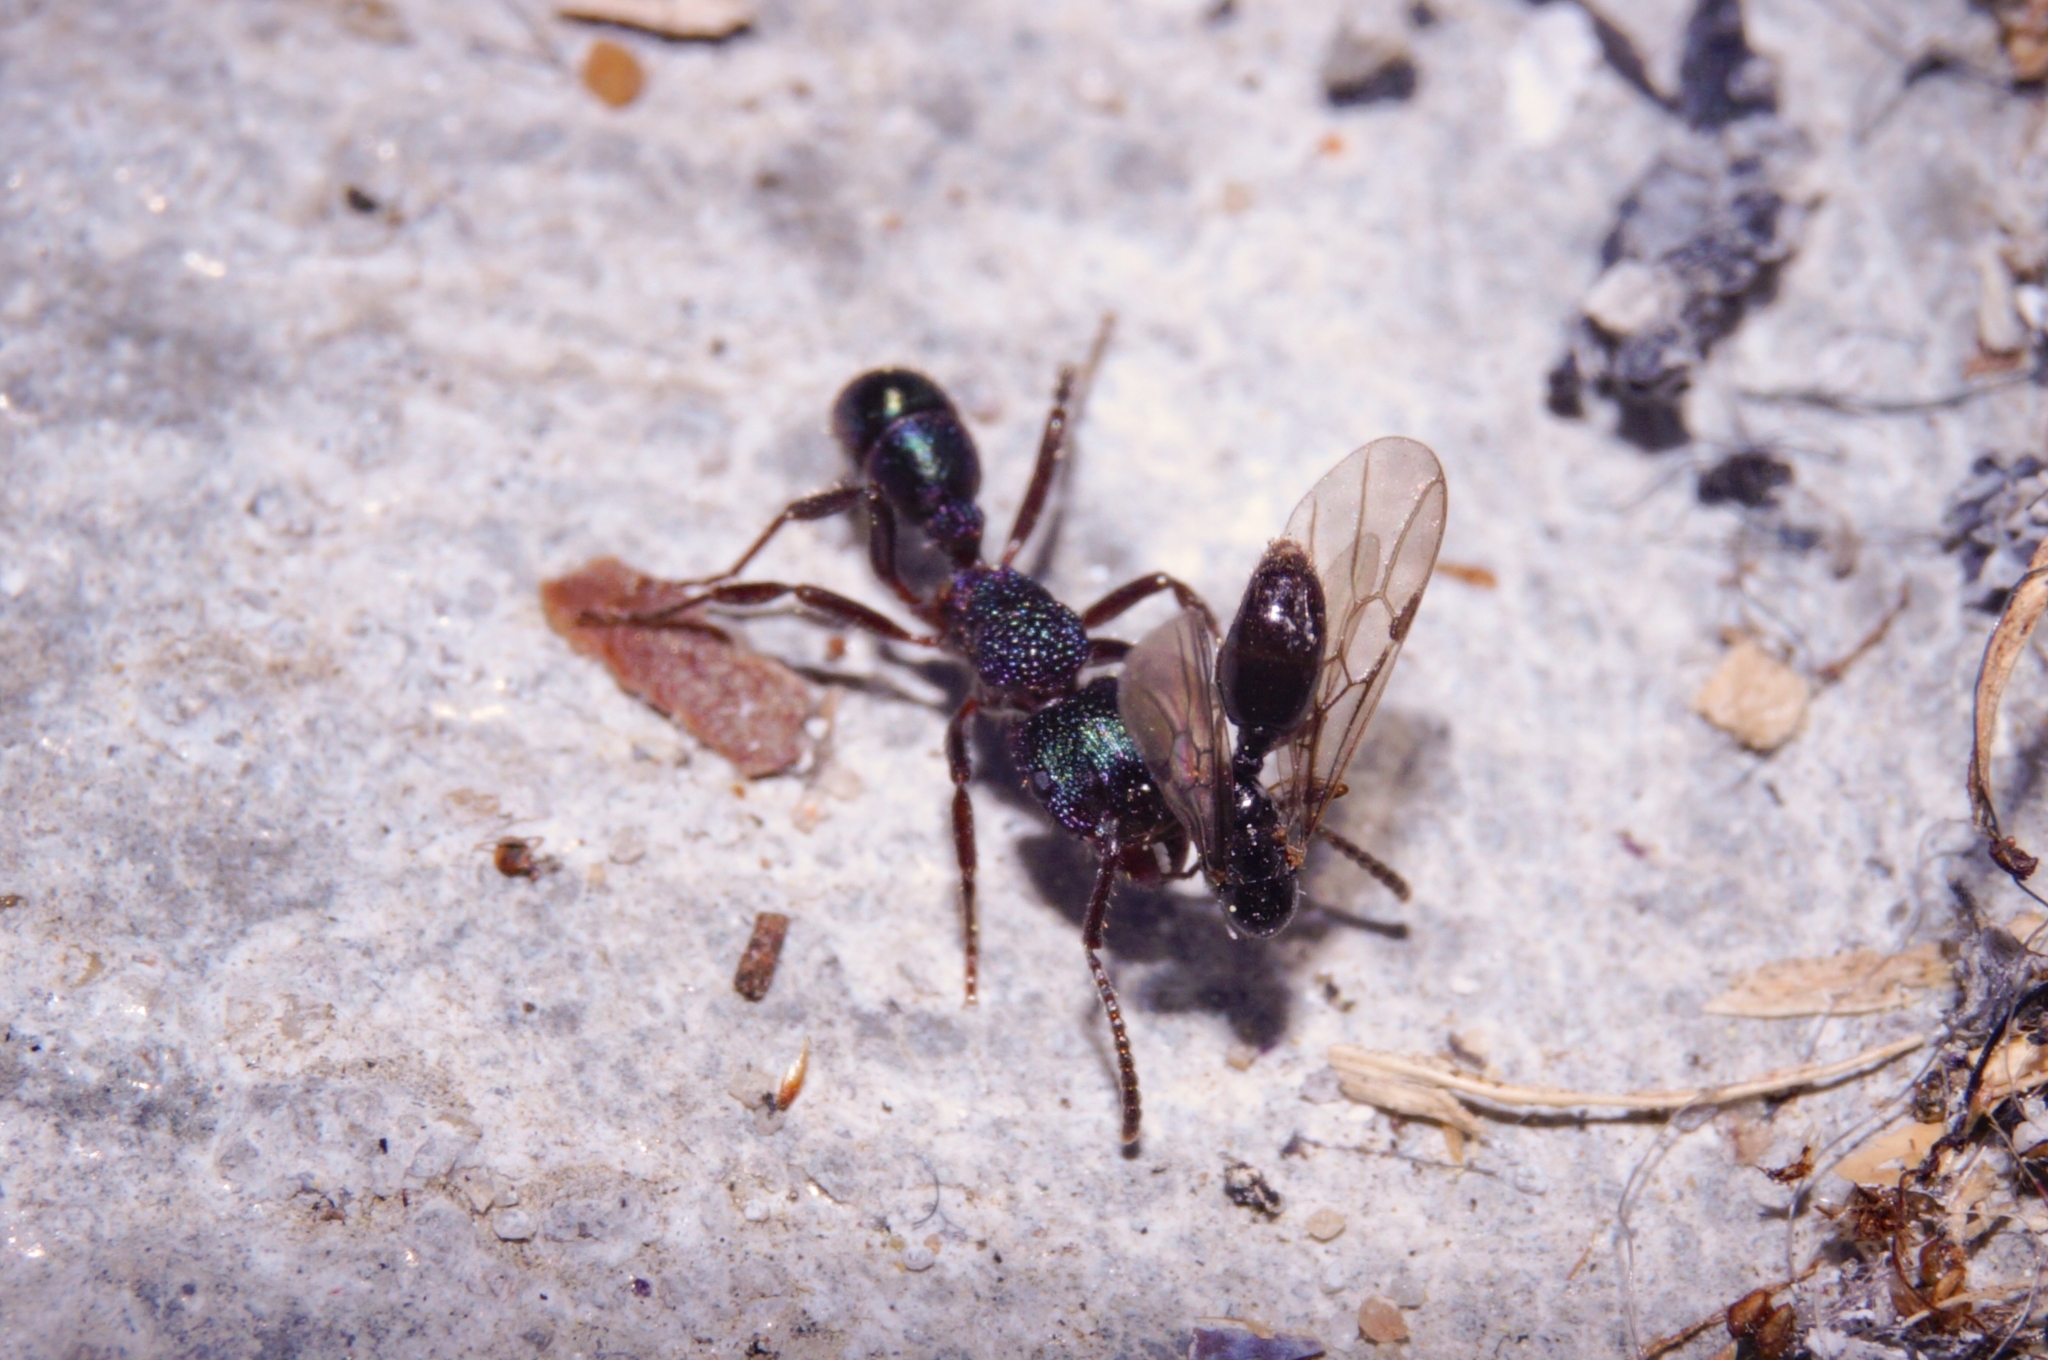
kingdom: Animalia
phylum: Arthropoda
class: Insecta
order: Hymenoptera
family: Formicidae
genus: Rhytidoponera
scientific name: Rhytidoponera metallica
